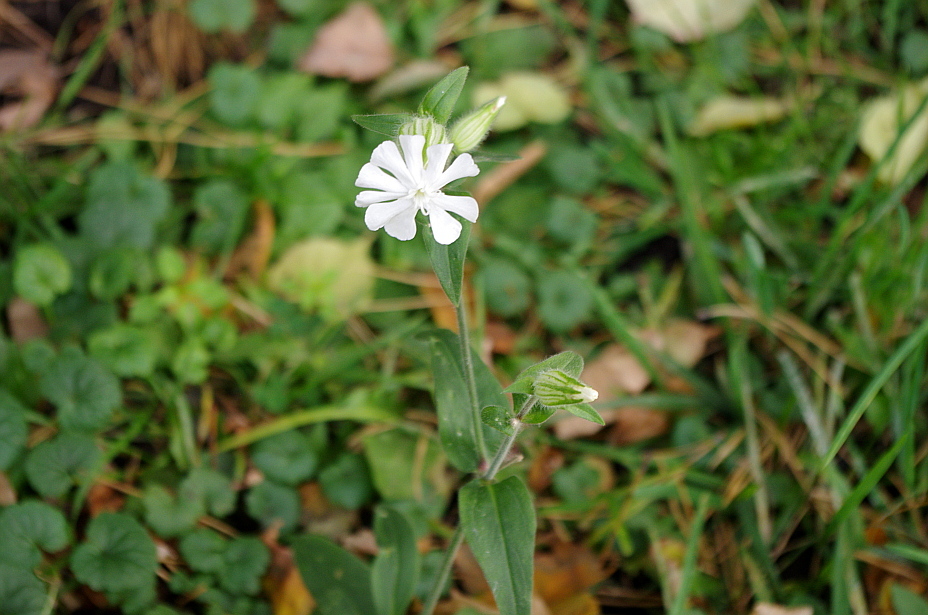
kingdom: Plantae
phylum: Tracheophyta
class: Magnoliopsida
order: Caryophyllales
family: Caryophyllaceae
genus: Silene
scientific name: Silene latifolia
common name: White campion
